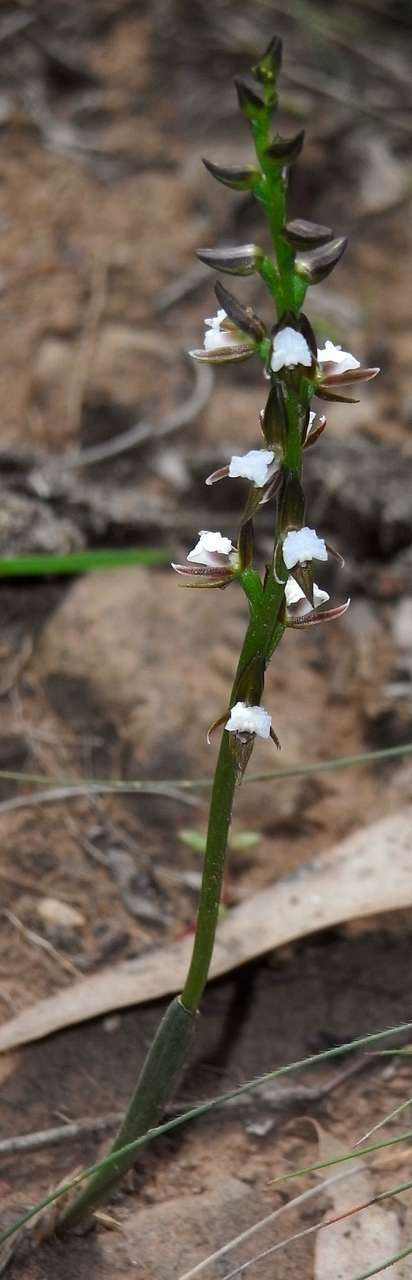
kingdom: Plantae
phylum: Tracheophyta
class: Liliopsida
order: Asparagales
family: Orchidaceae
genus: Prasophyllum
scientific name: Prasophyllum brevilabre
